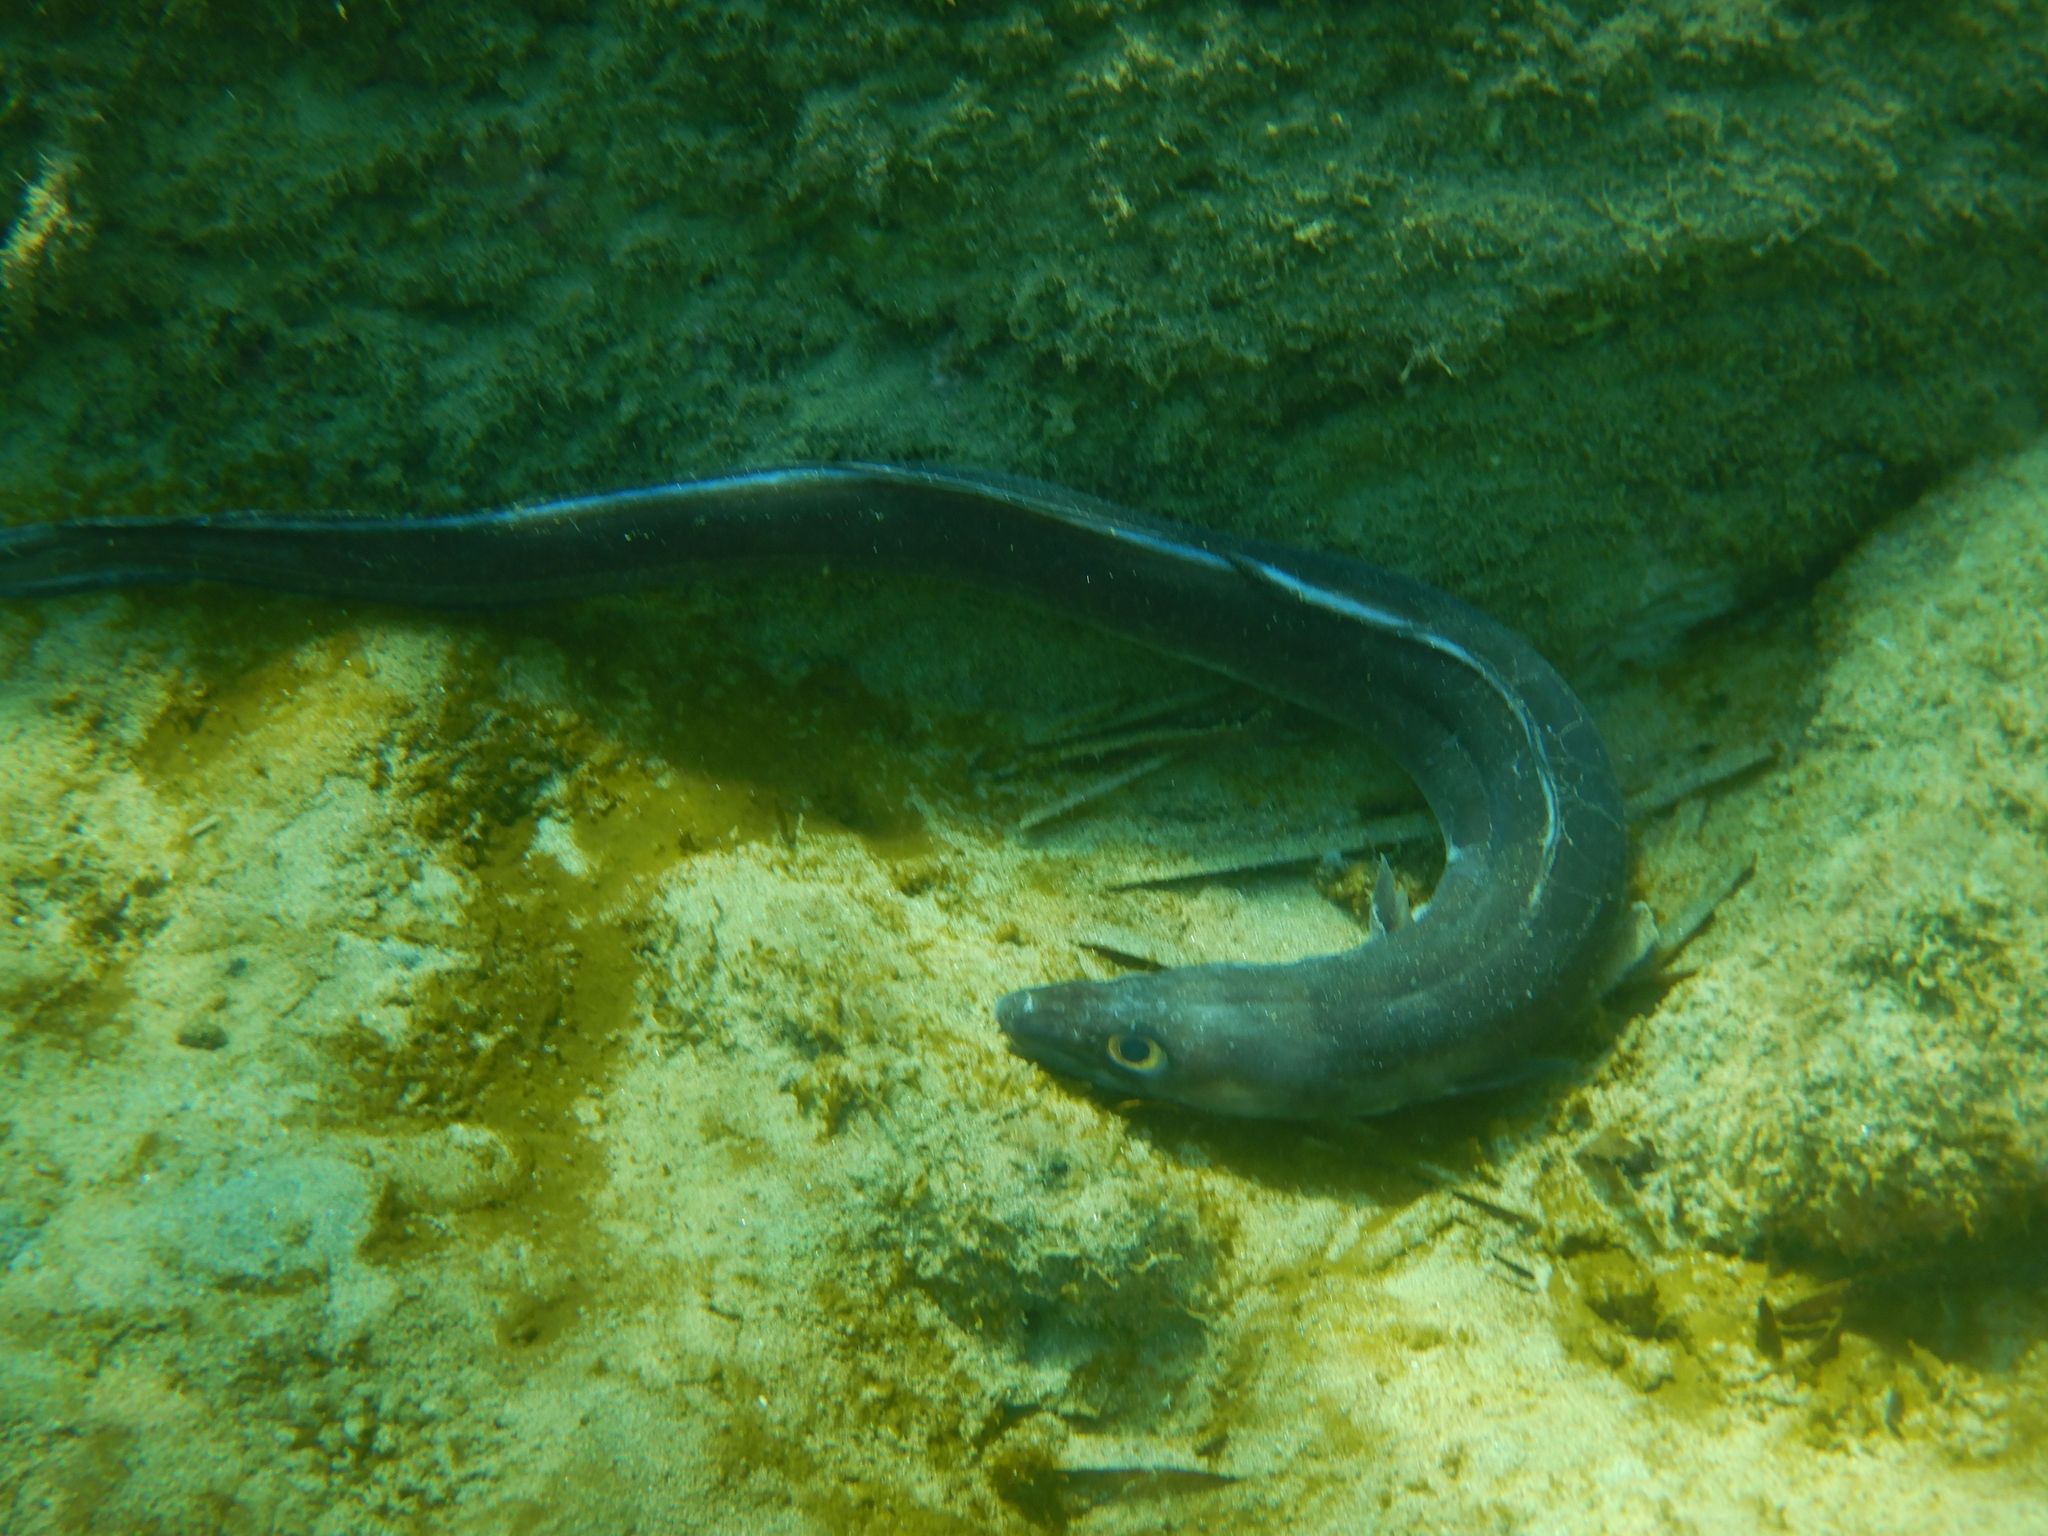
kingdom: Animalia
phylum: Chordata
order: Anguilliformes
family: Congridae
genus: Conger
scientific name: Conger conger
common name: Conger eel
